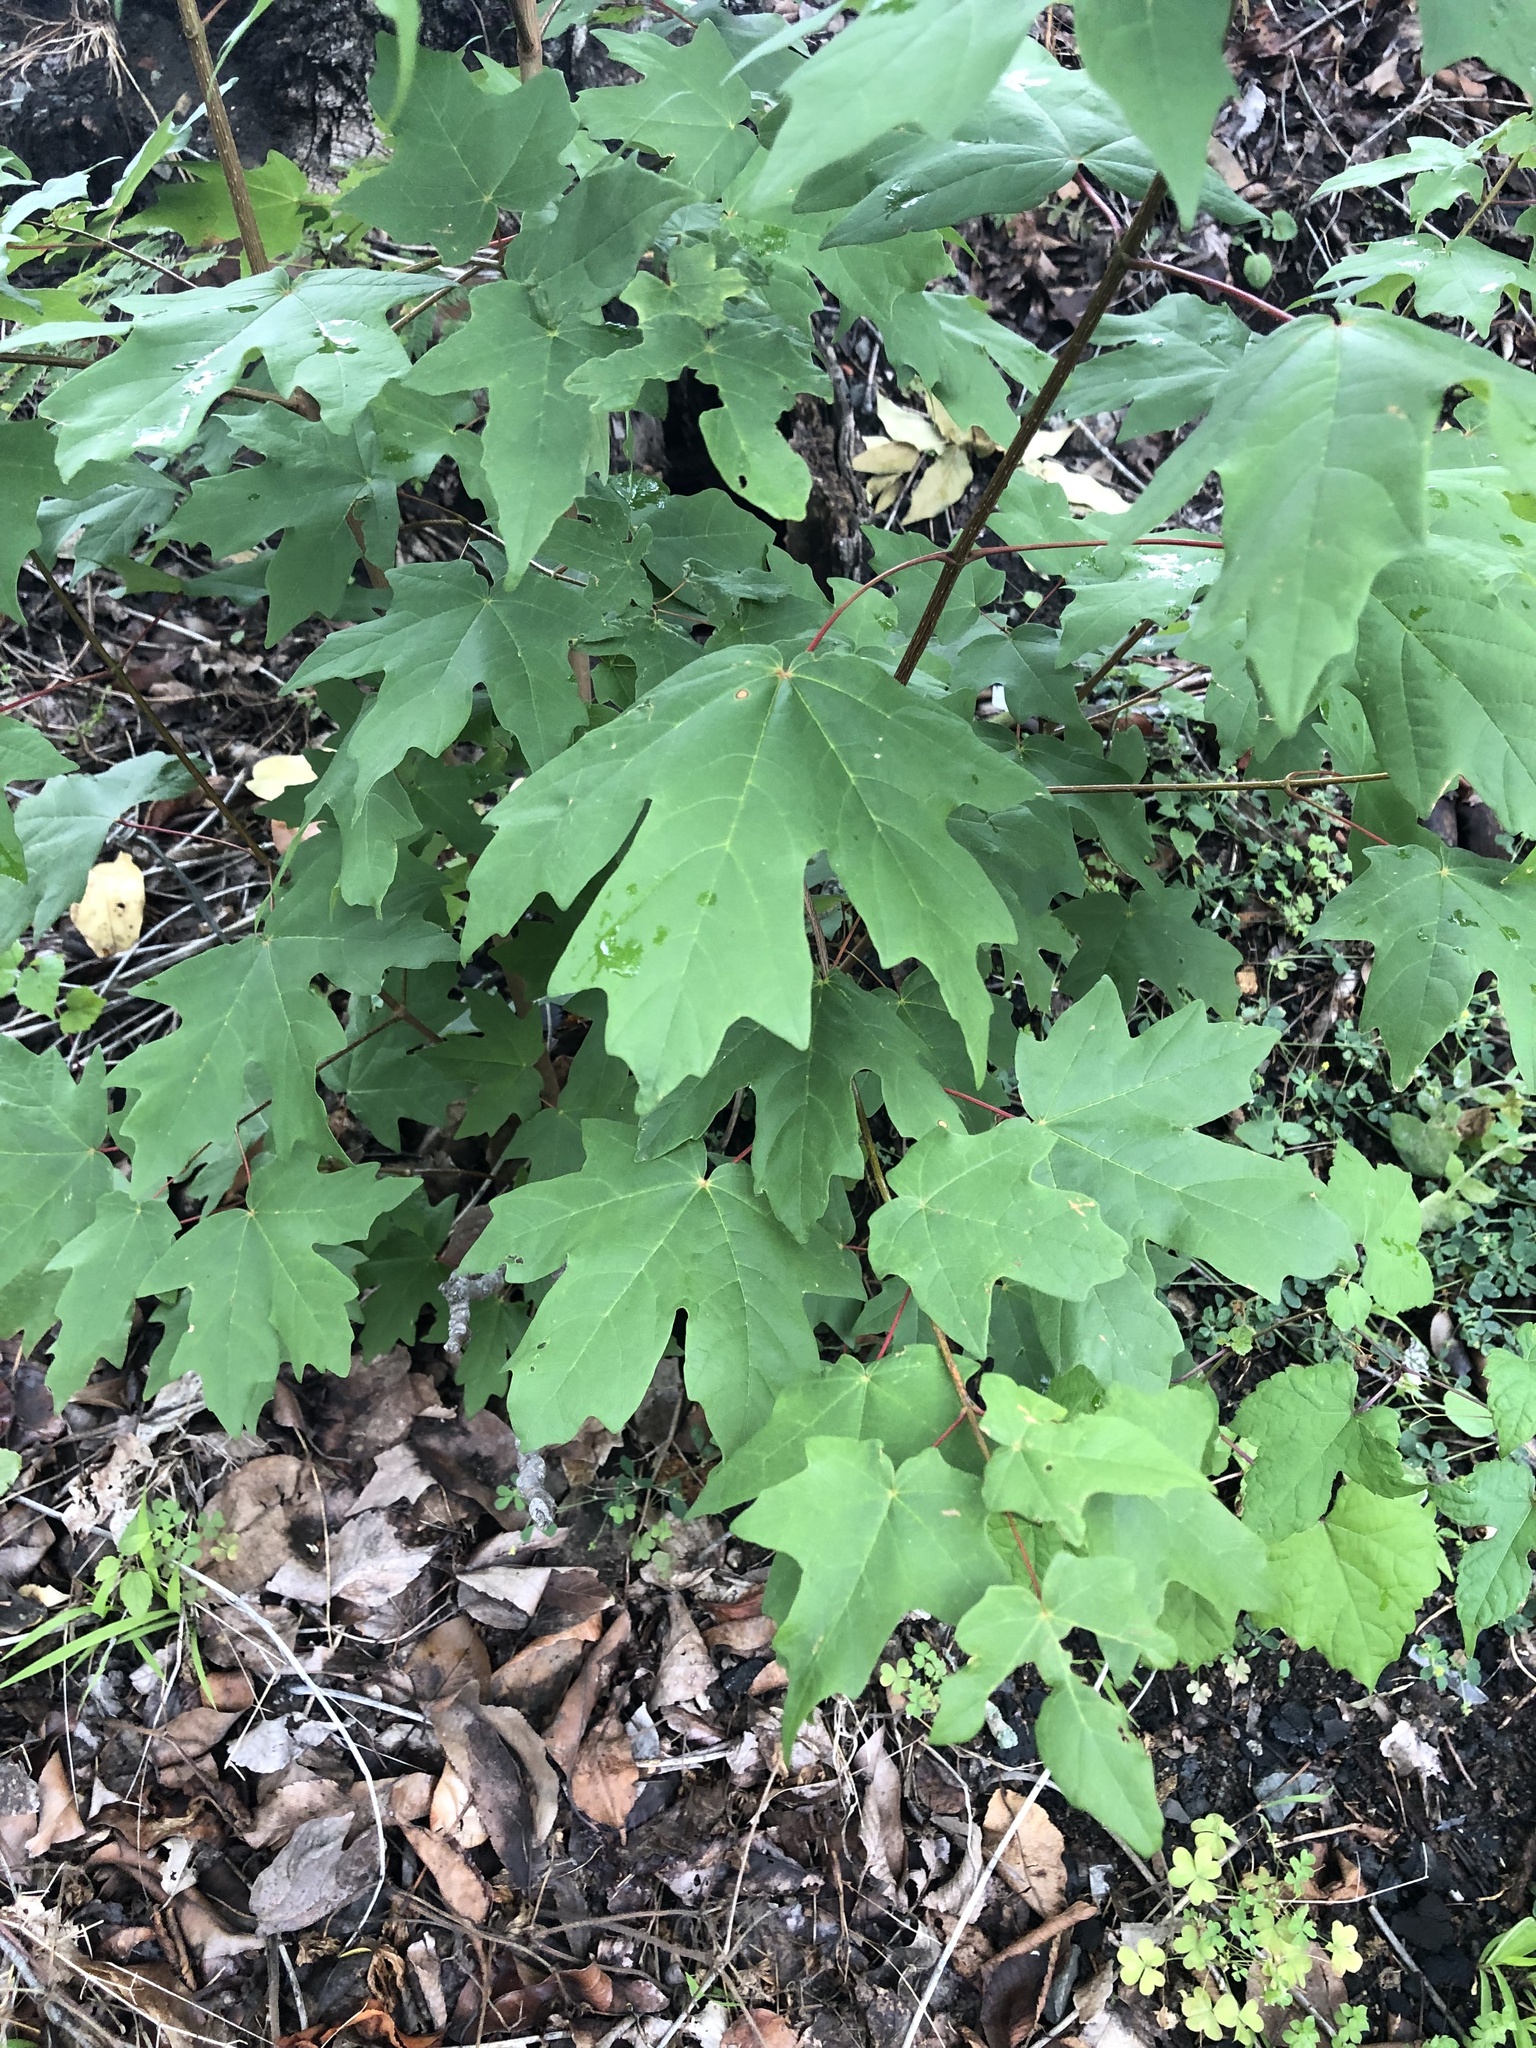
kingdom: Plantae
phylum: Tracheophyta
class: Magnoliopsida
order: Sapindales
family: Sapindaceae
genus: Acer
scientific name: Acer floridanum
